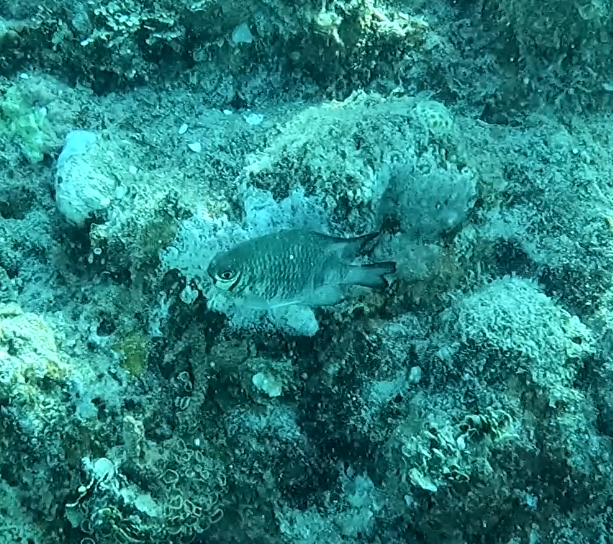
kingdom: Animalia
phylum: Chordata
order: Perciformes
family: Pomacentridae
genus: Amblyglyphidodon
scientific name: Amblyglyphidodon curacao
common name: Staghorn damsel
